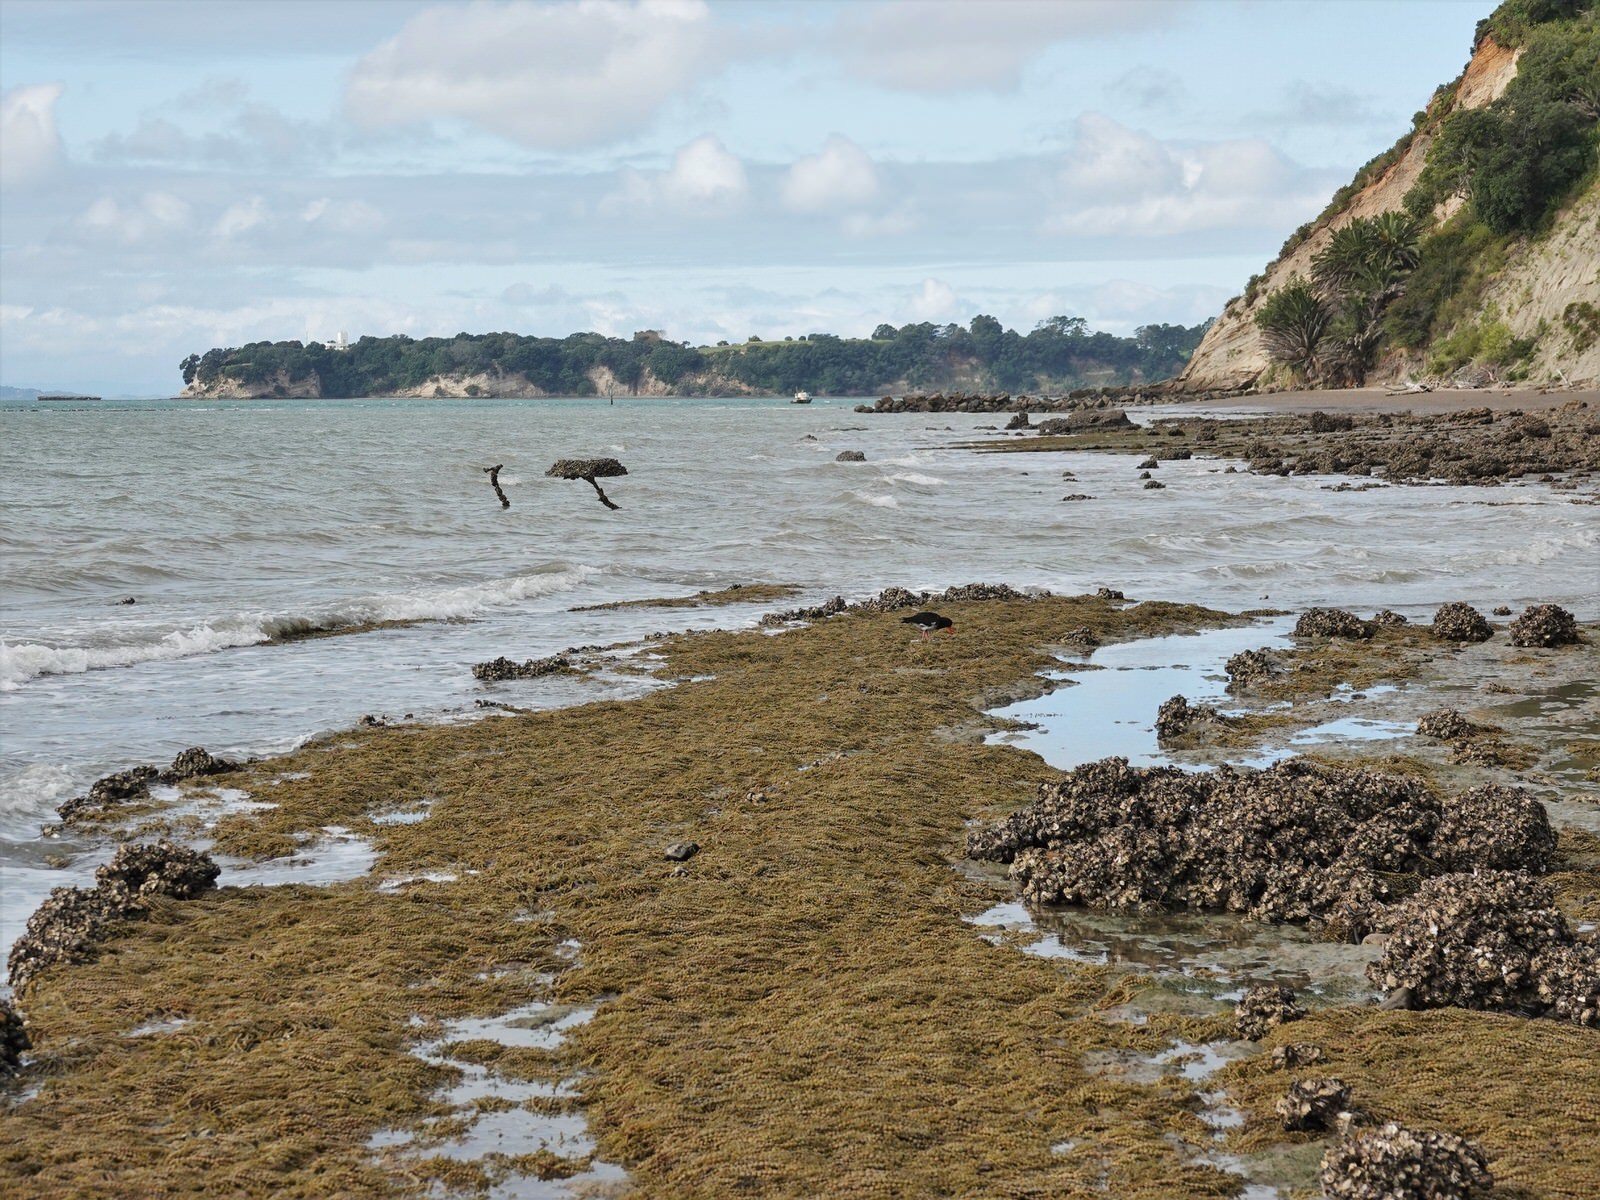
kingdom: Animalia
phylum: Chordata
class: Aves
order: Charadriiformes
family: Haematopodidae
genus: Haematopus
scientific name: Haematopus unicolor
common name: Variable oystercatcher
